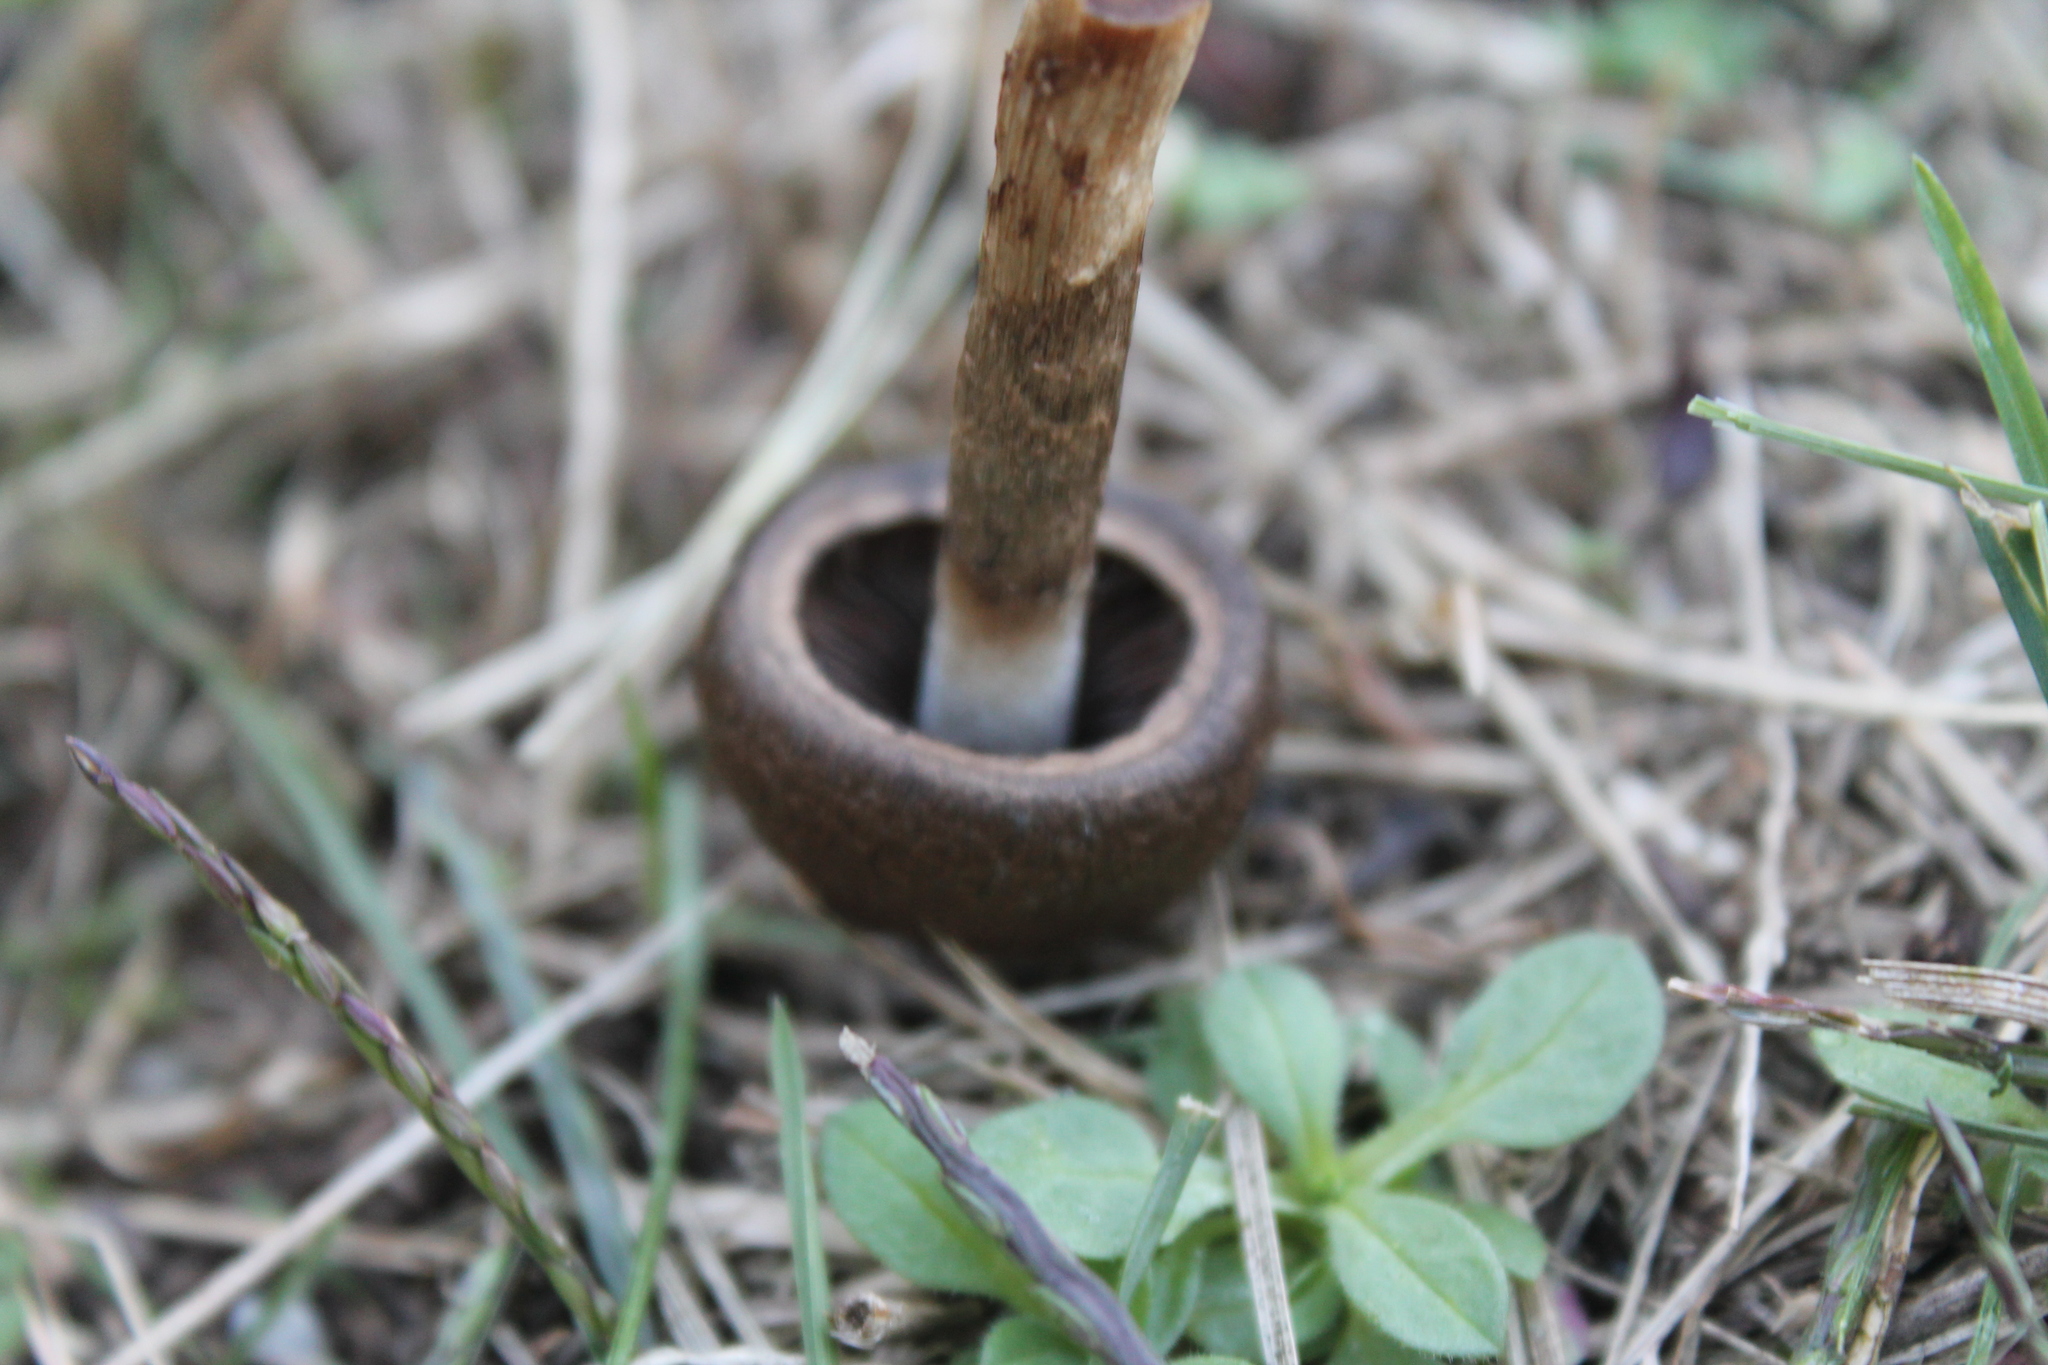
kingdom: Fungi
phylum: Basidiomycota
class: Agaricomycetes
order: Agaricales
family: Psathyrellaceae
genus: Lacrymaria
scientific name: Lacrymaria lacrymabunda
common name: Weeping widow
